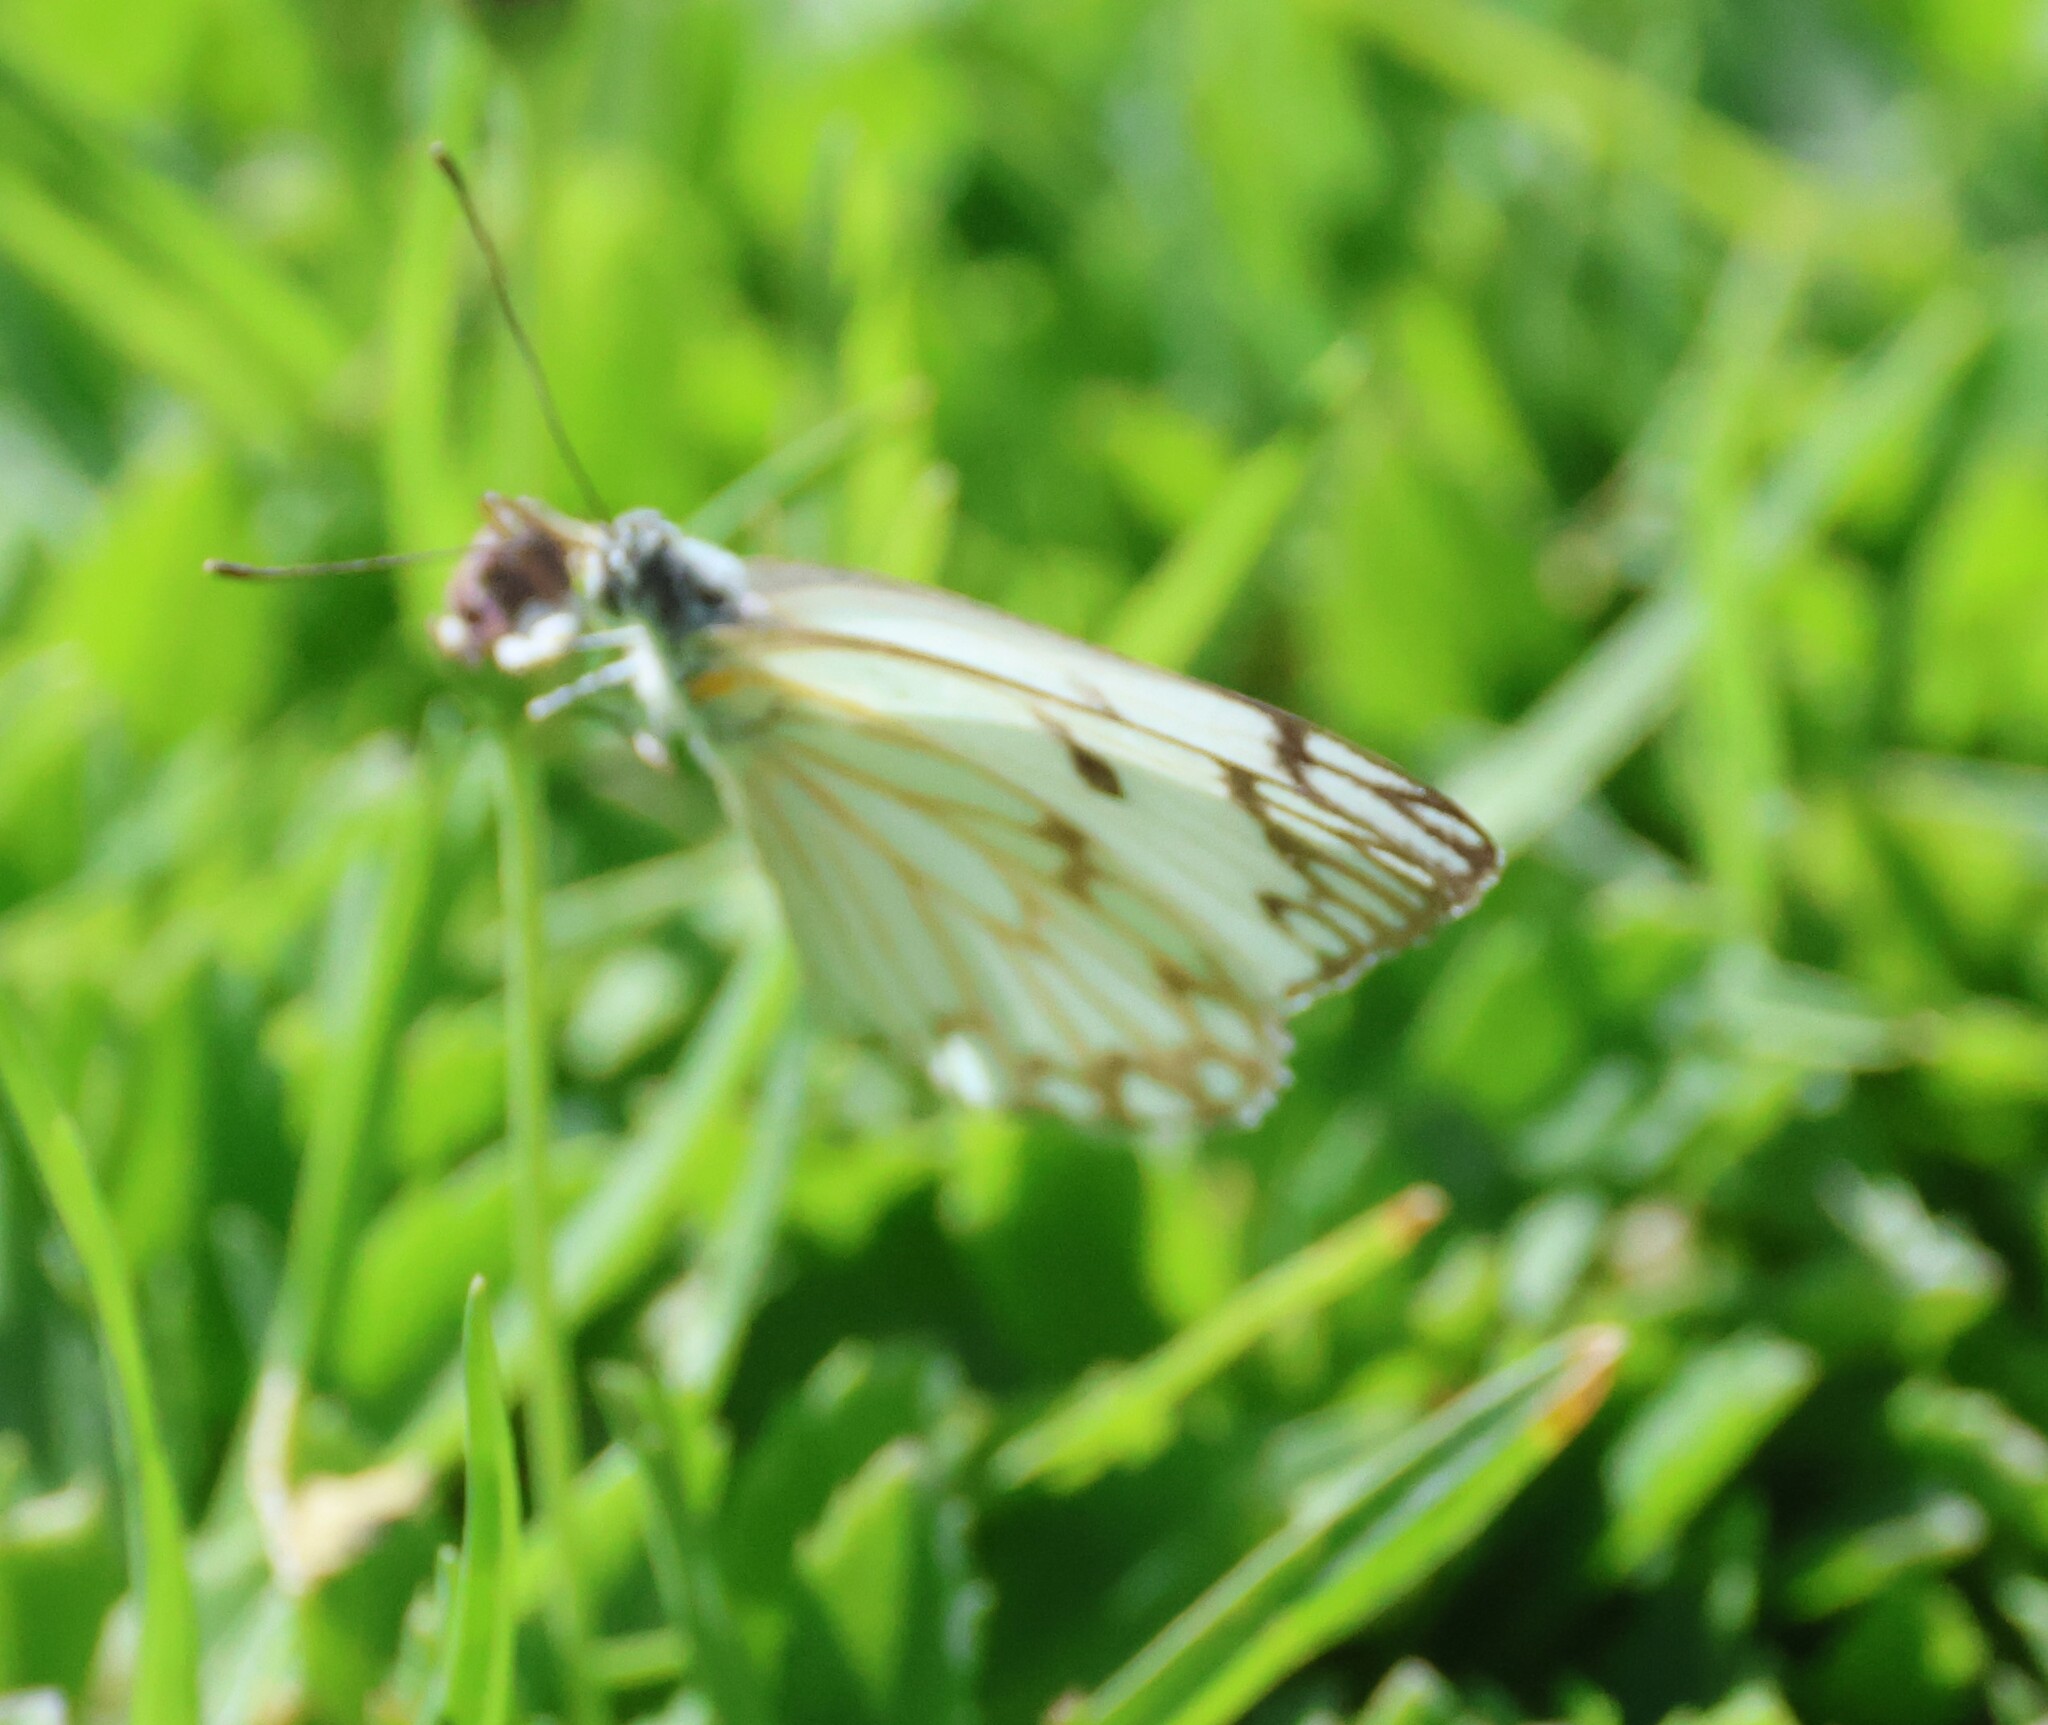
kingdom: Animalia
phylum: Arthropoda
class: Insecta
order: Lepidoptera
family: Pieridae
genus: Belenois
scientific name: Belenois aurota
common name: Brown-veined white
